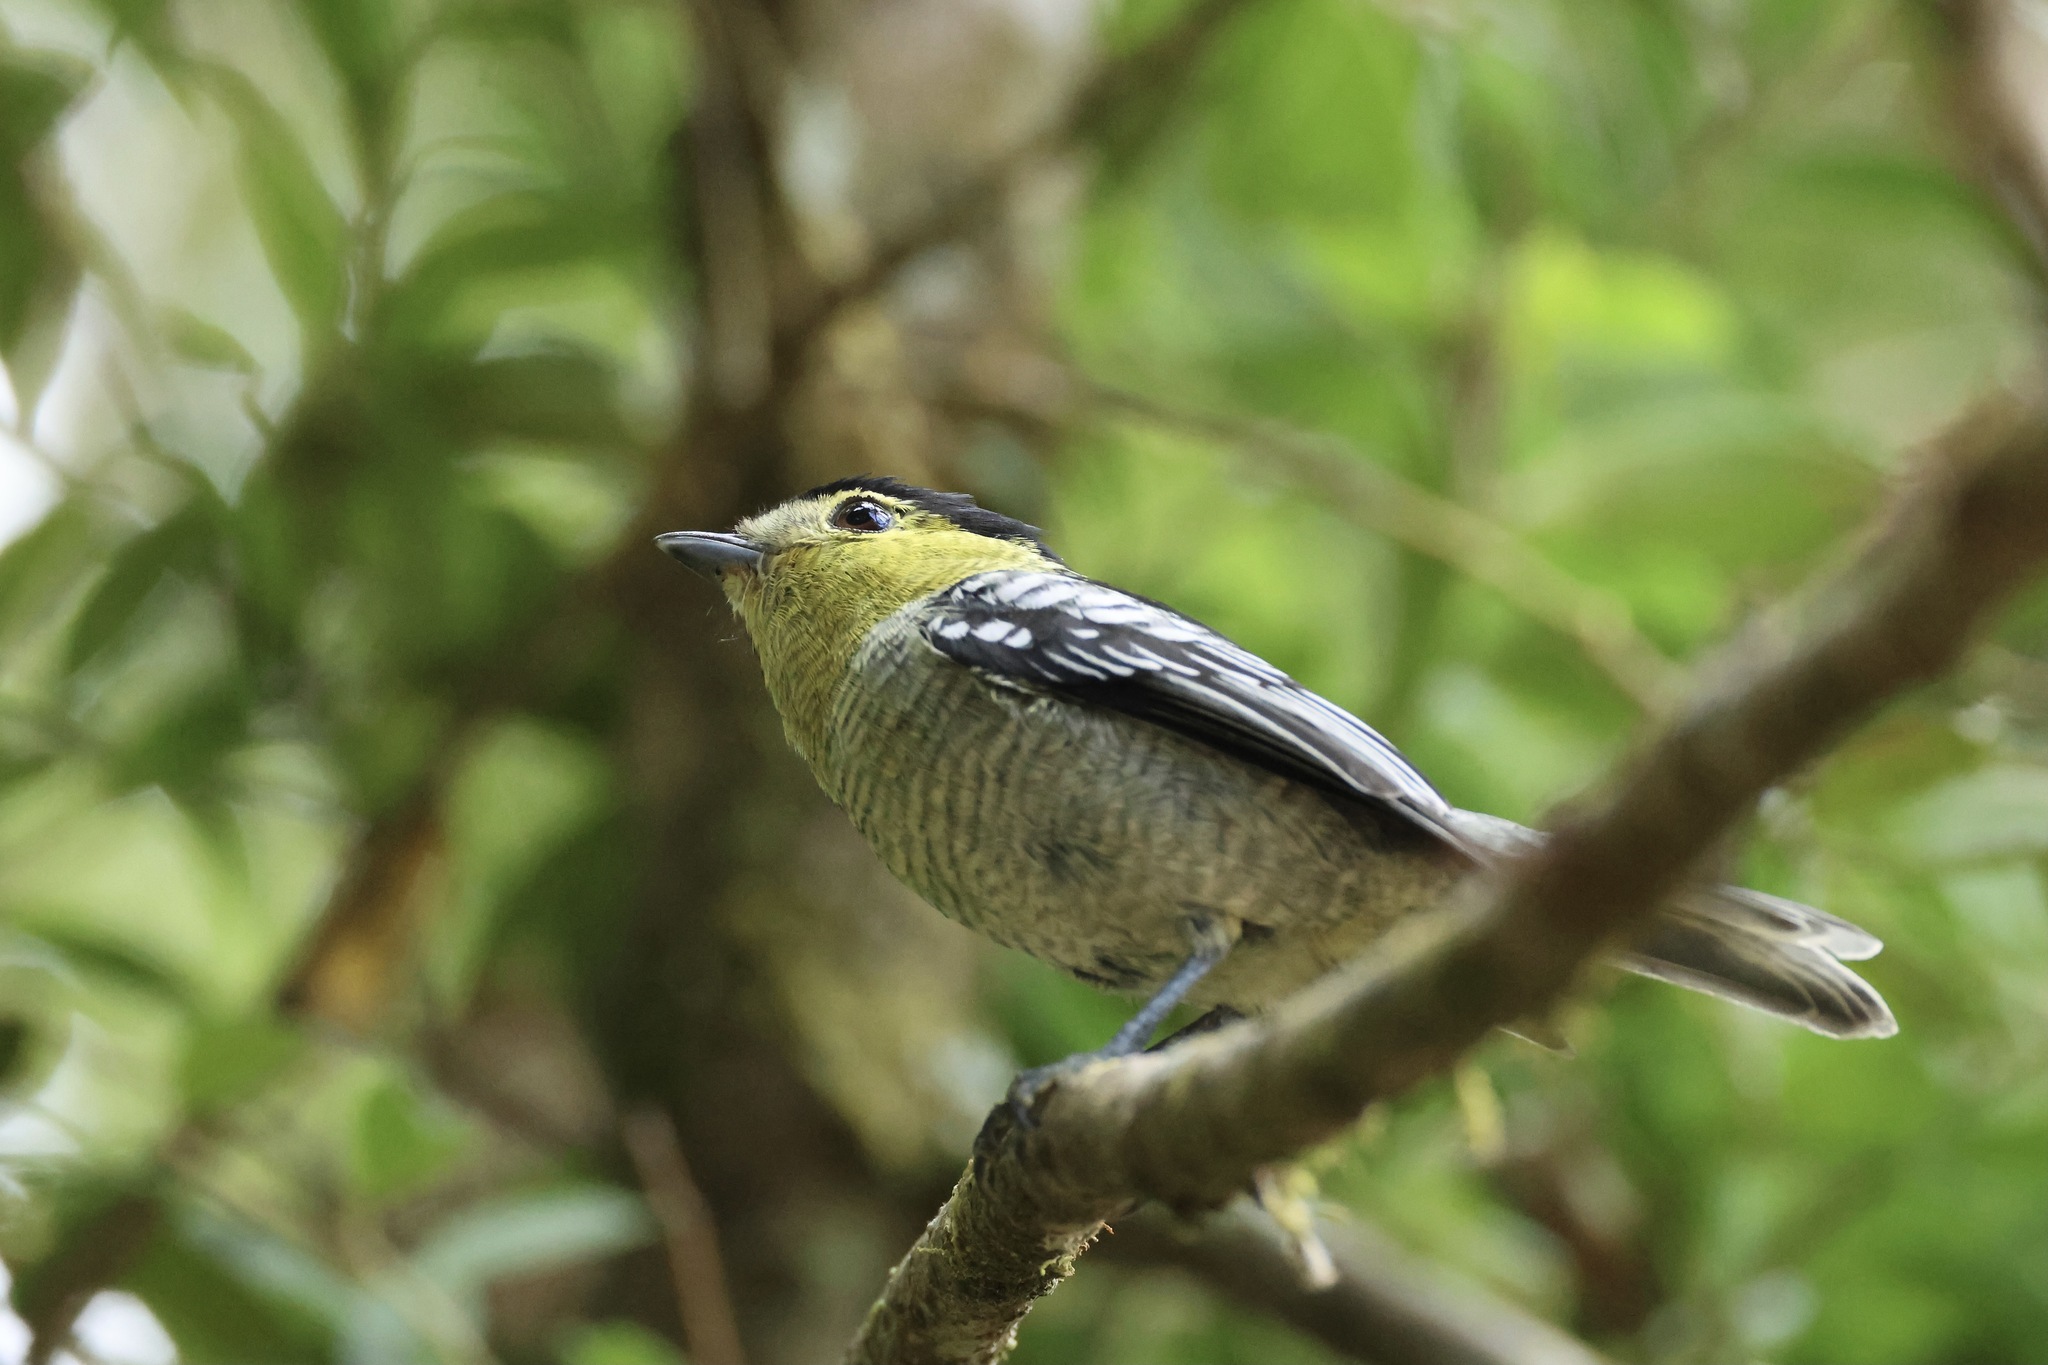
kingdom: Animalia
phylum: Chordata
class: Aves
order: Passeriformes
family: Cotingidae
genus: Pachyramphus
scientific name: Pachyramphus versicolor
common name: Barred becard
